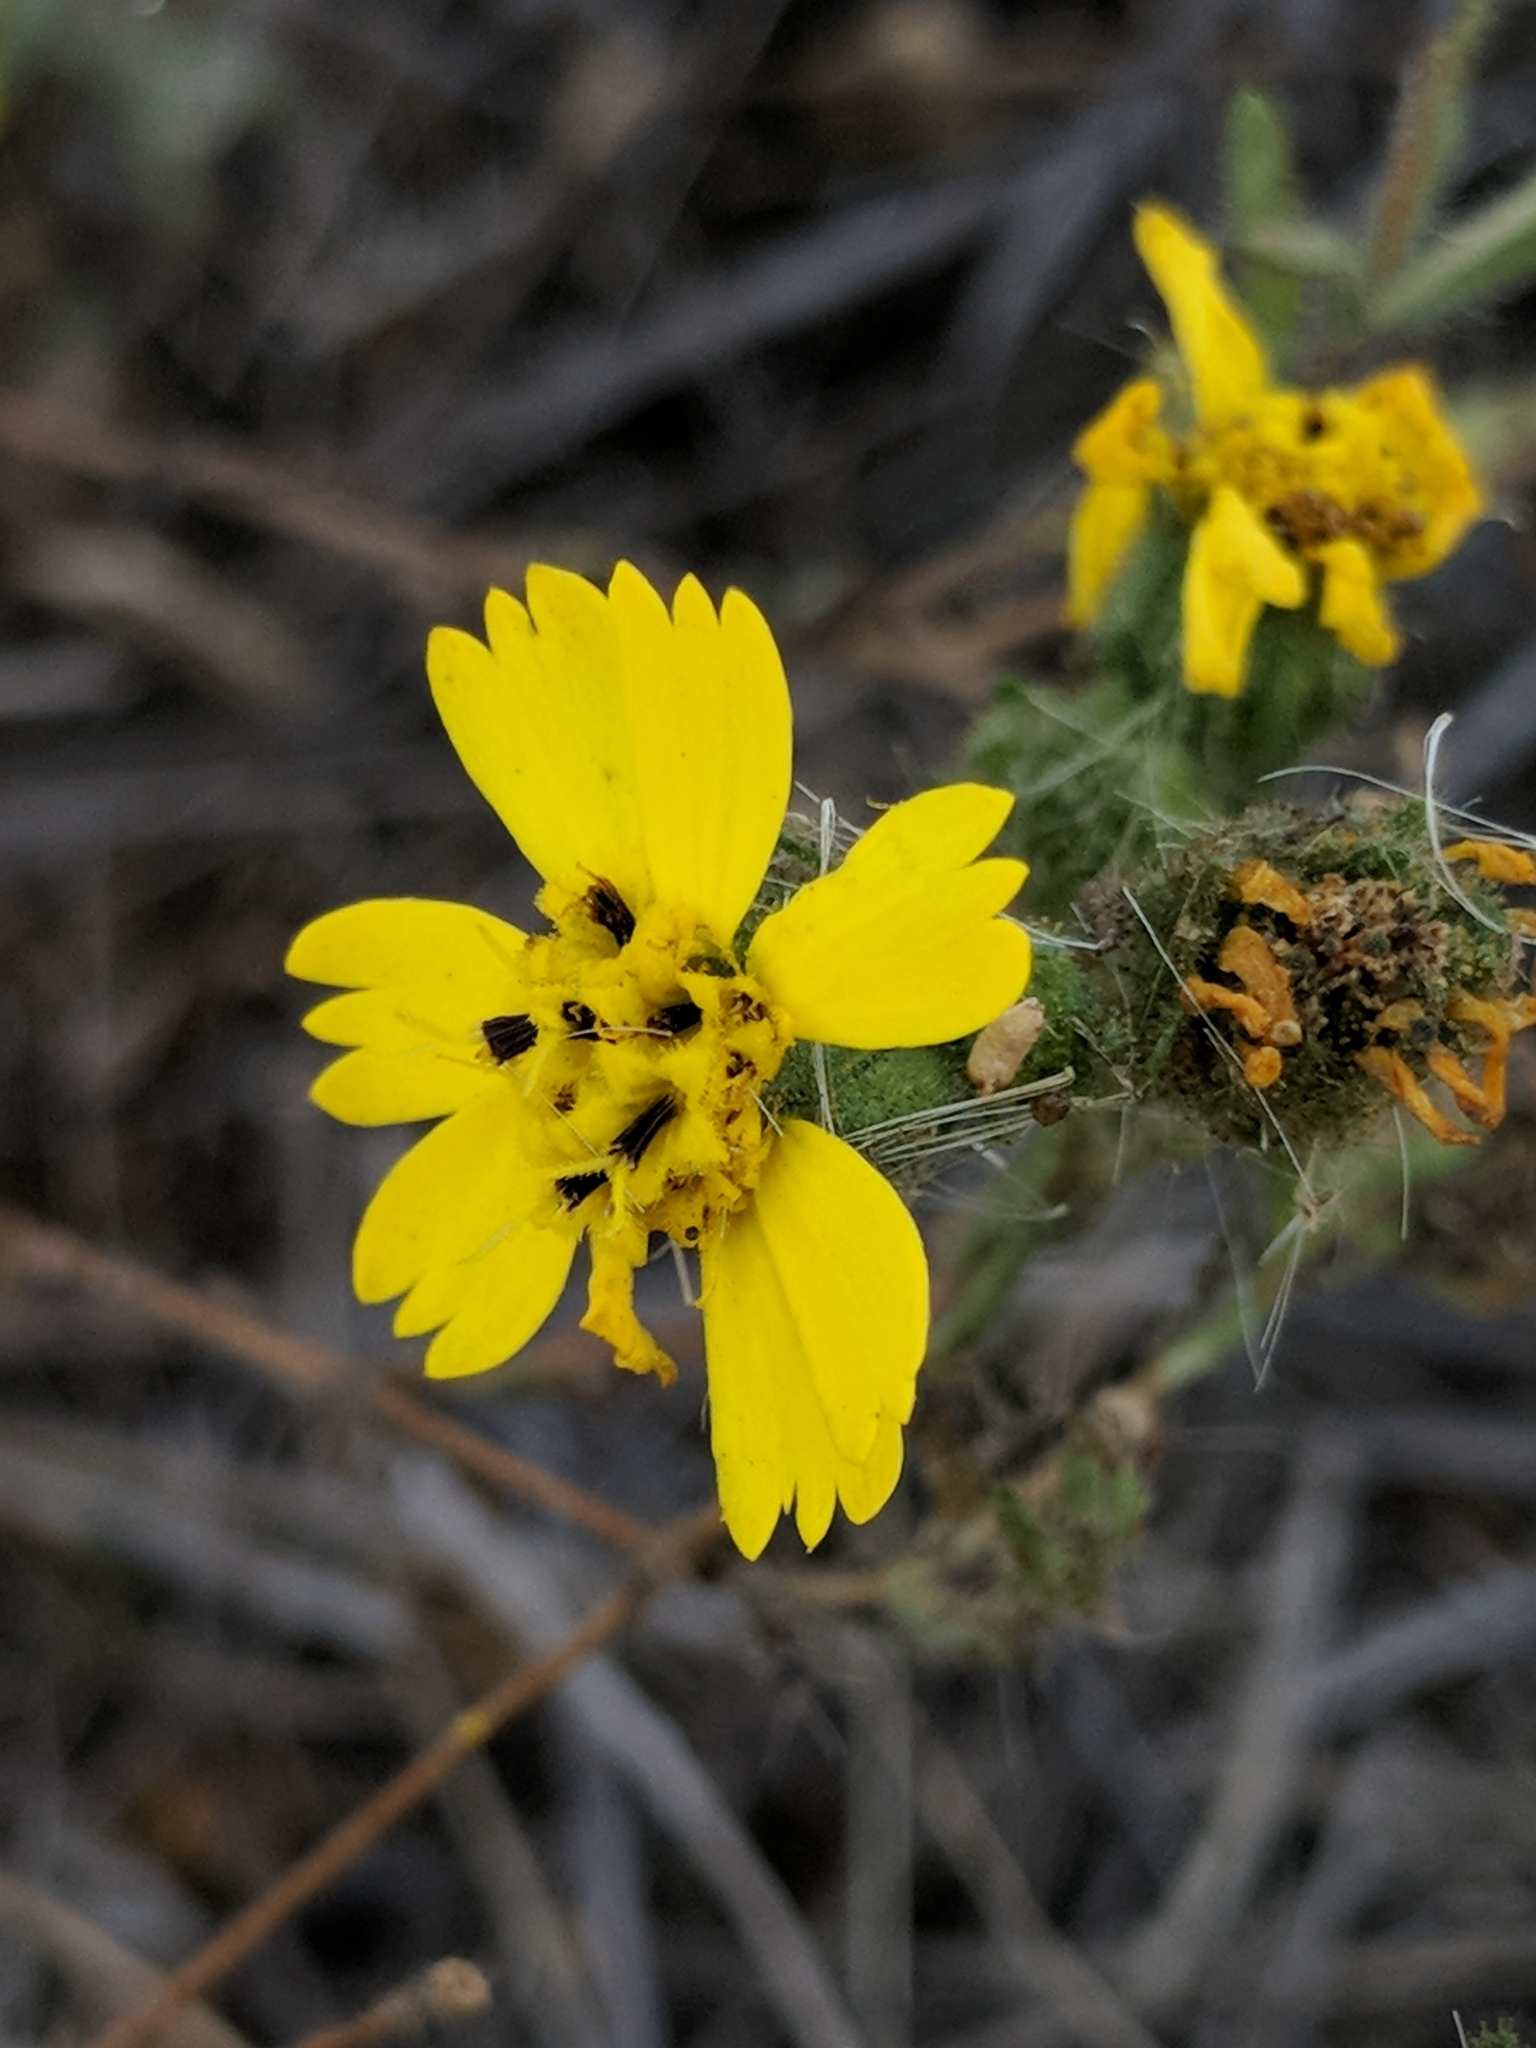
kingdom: Plantae
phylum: Tracheophyta
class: Magnoliopsida
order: Asterales
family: Asteraceae
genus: Deinandra
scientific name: Deinandra corymbosa
